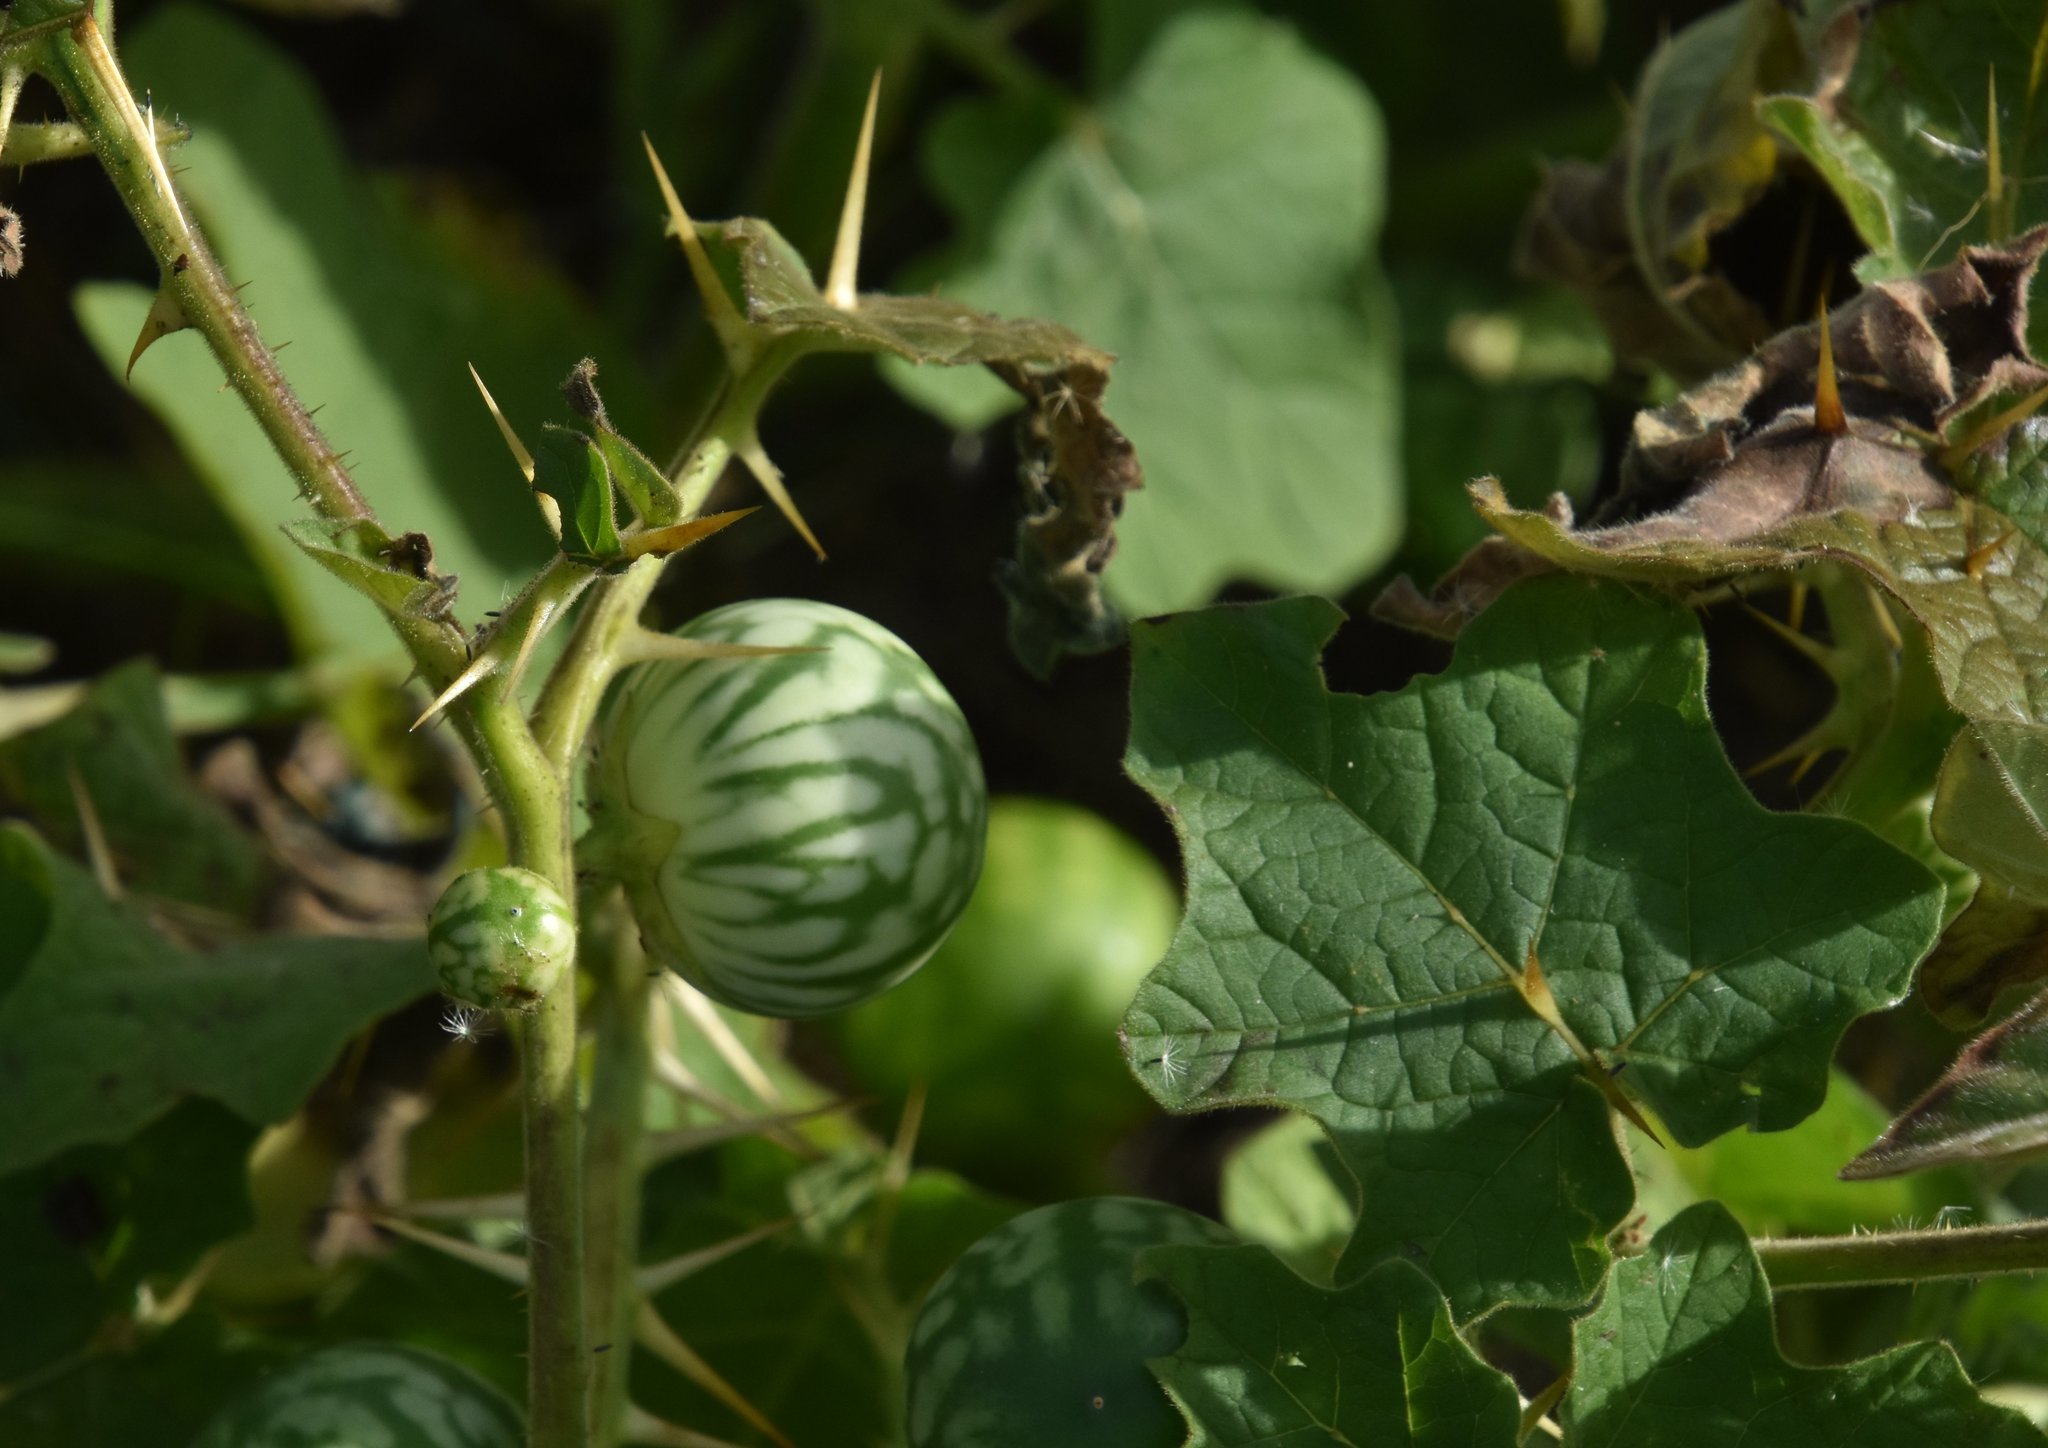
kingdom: Plantae
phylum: Tracheophyta
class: Magnoliopsida
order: Solanales
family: Solanaceae
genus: Solanum
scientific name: Solanum viarum
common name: Tropical soda apple
